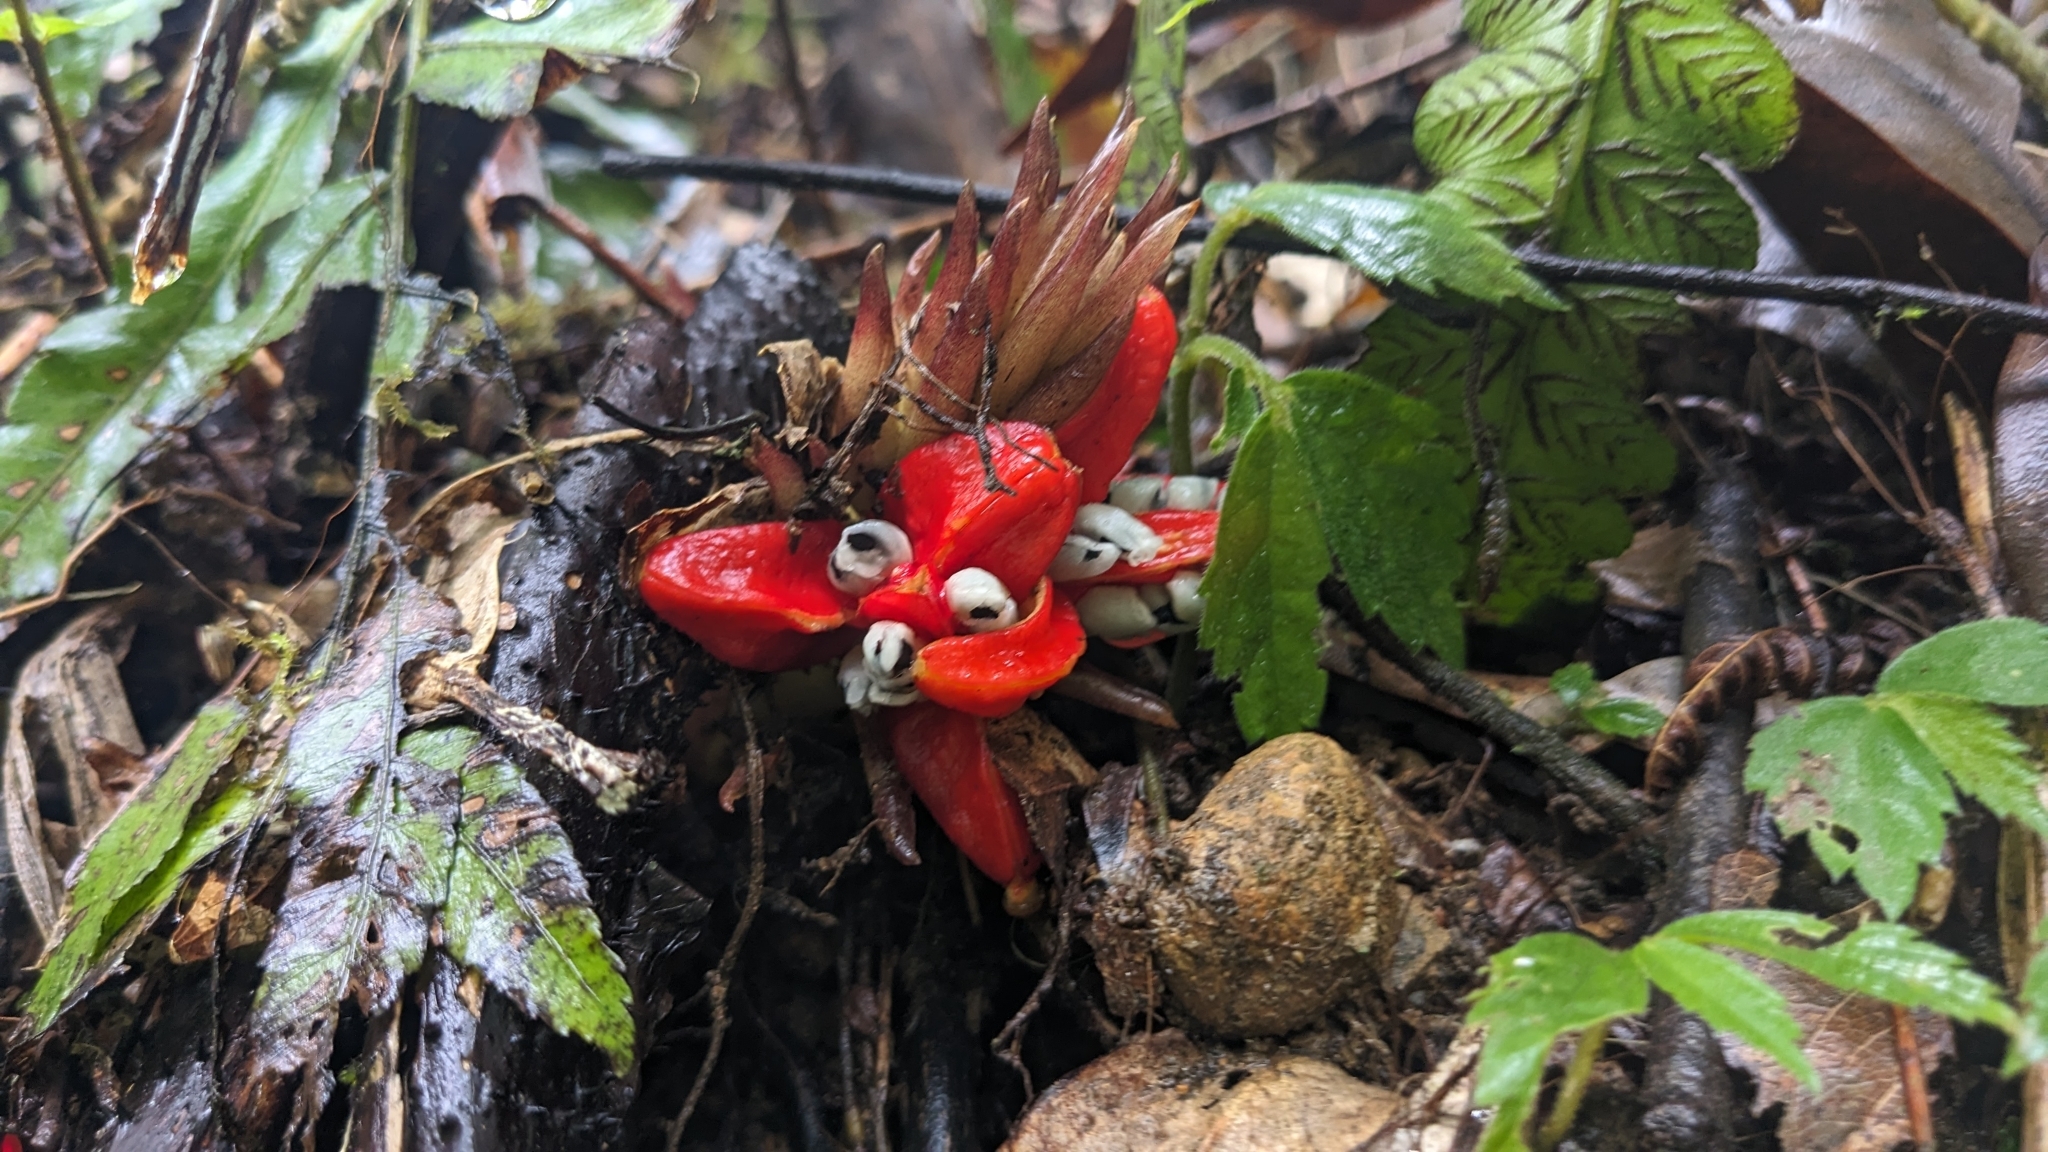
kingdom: Plantae
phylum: Tracheophyta
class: Liliopsida
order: Zingiberales
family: Zingiberaceae
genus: Zingiber
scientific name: Zingiber kawagoii
